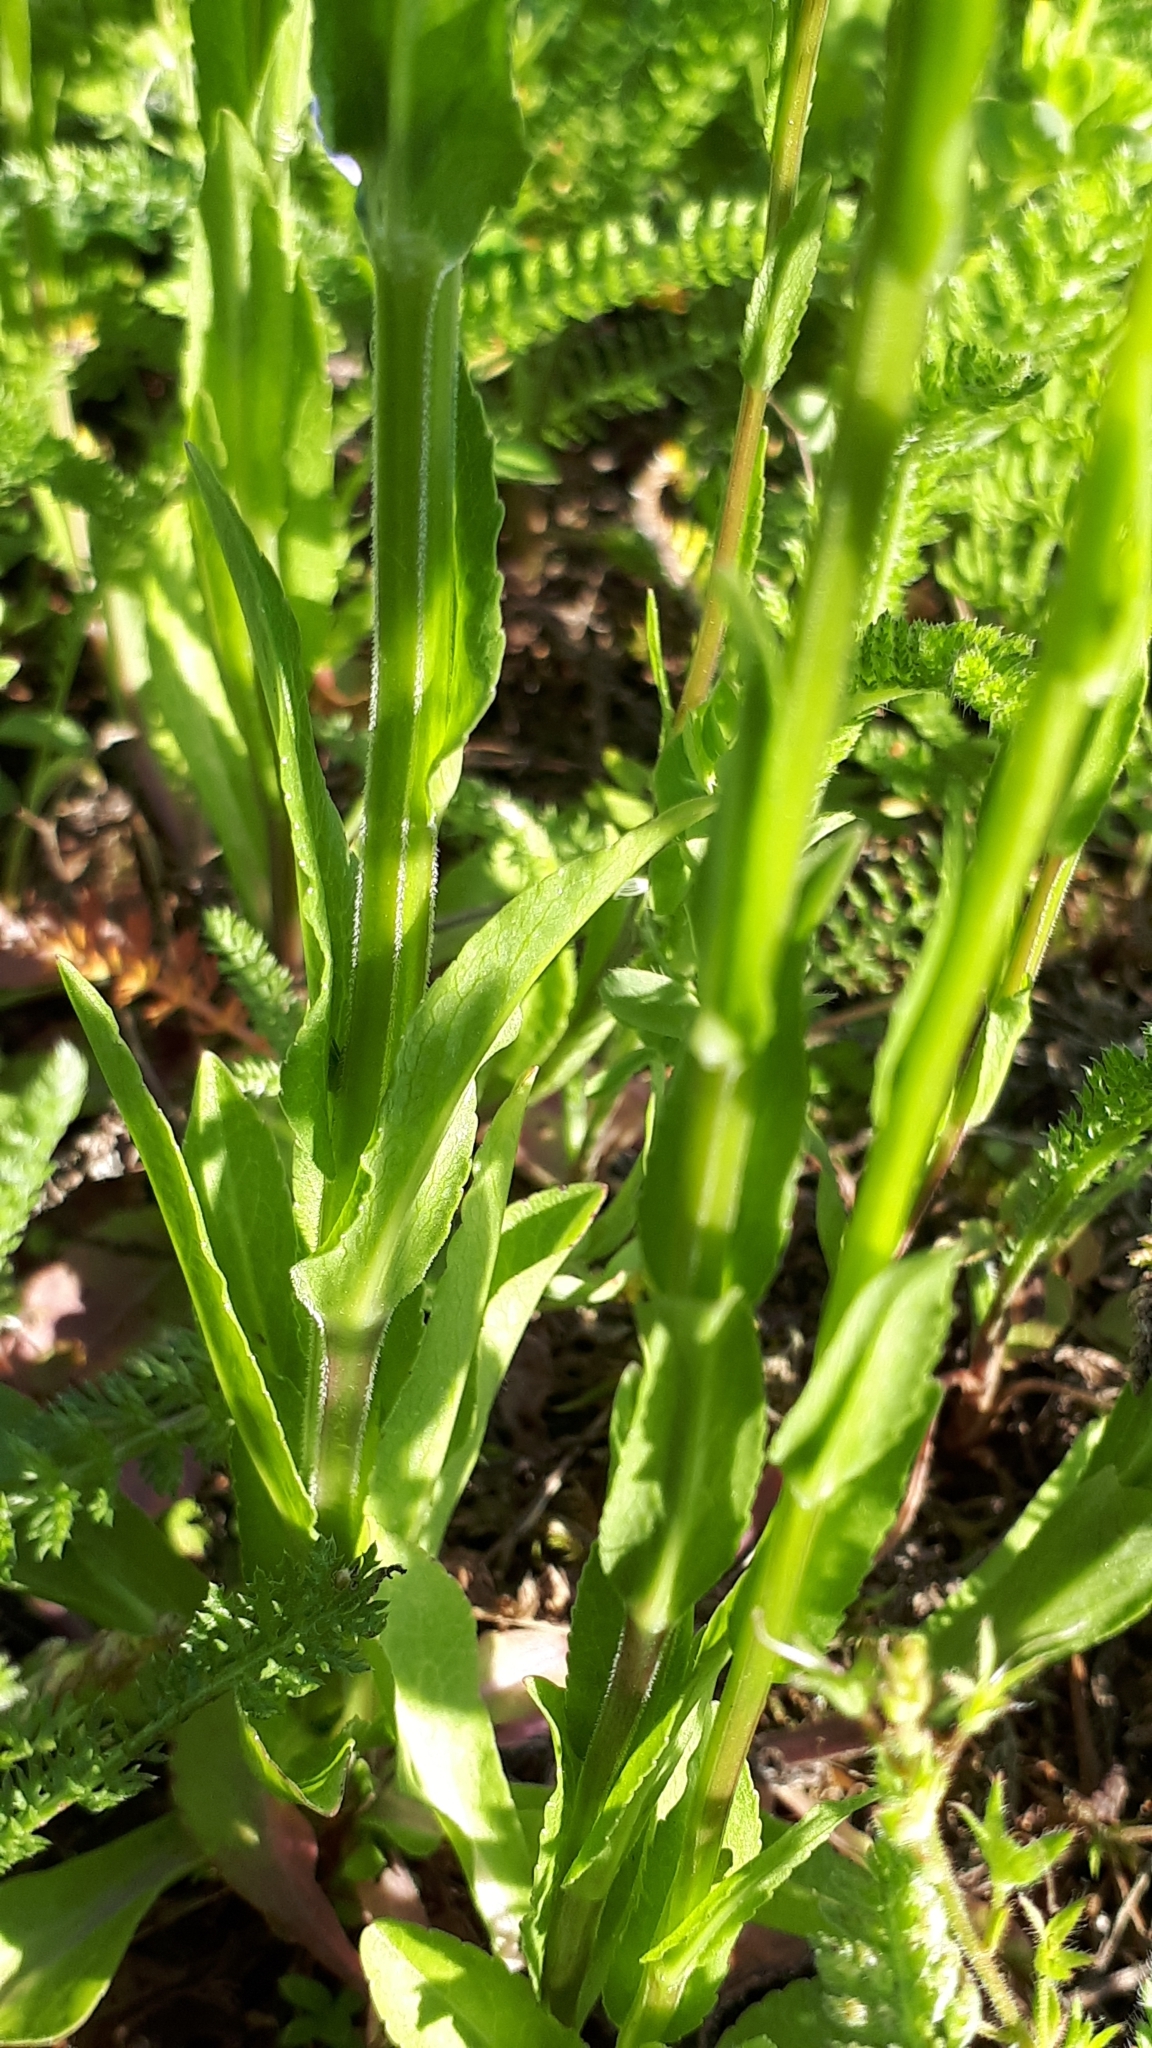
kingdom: Plantae
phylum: Tracheophyta
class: Magnoliopsida
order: Asterales
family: Campanulaceae
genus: Campanula
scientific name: Campanula patula
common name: Spreading bellflower
